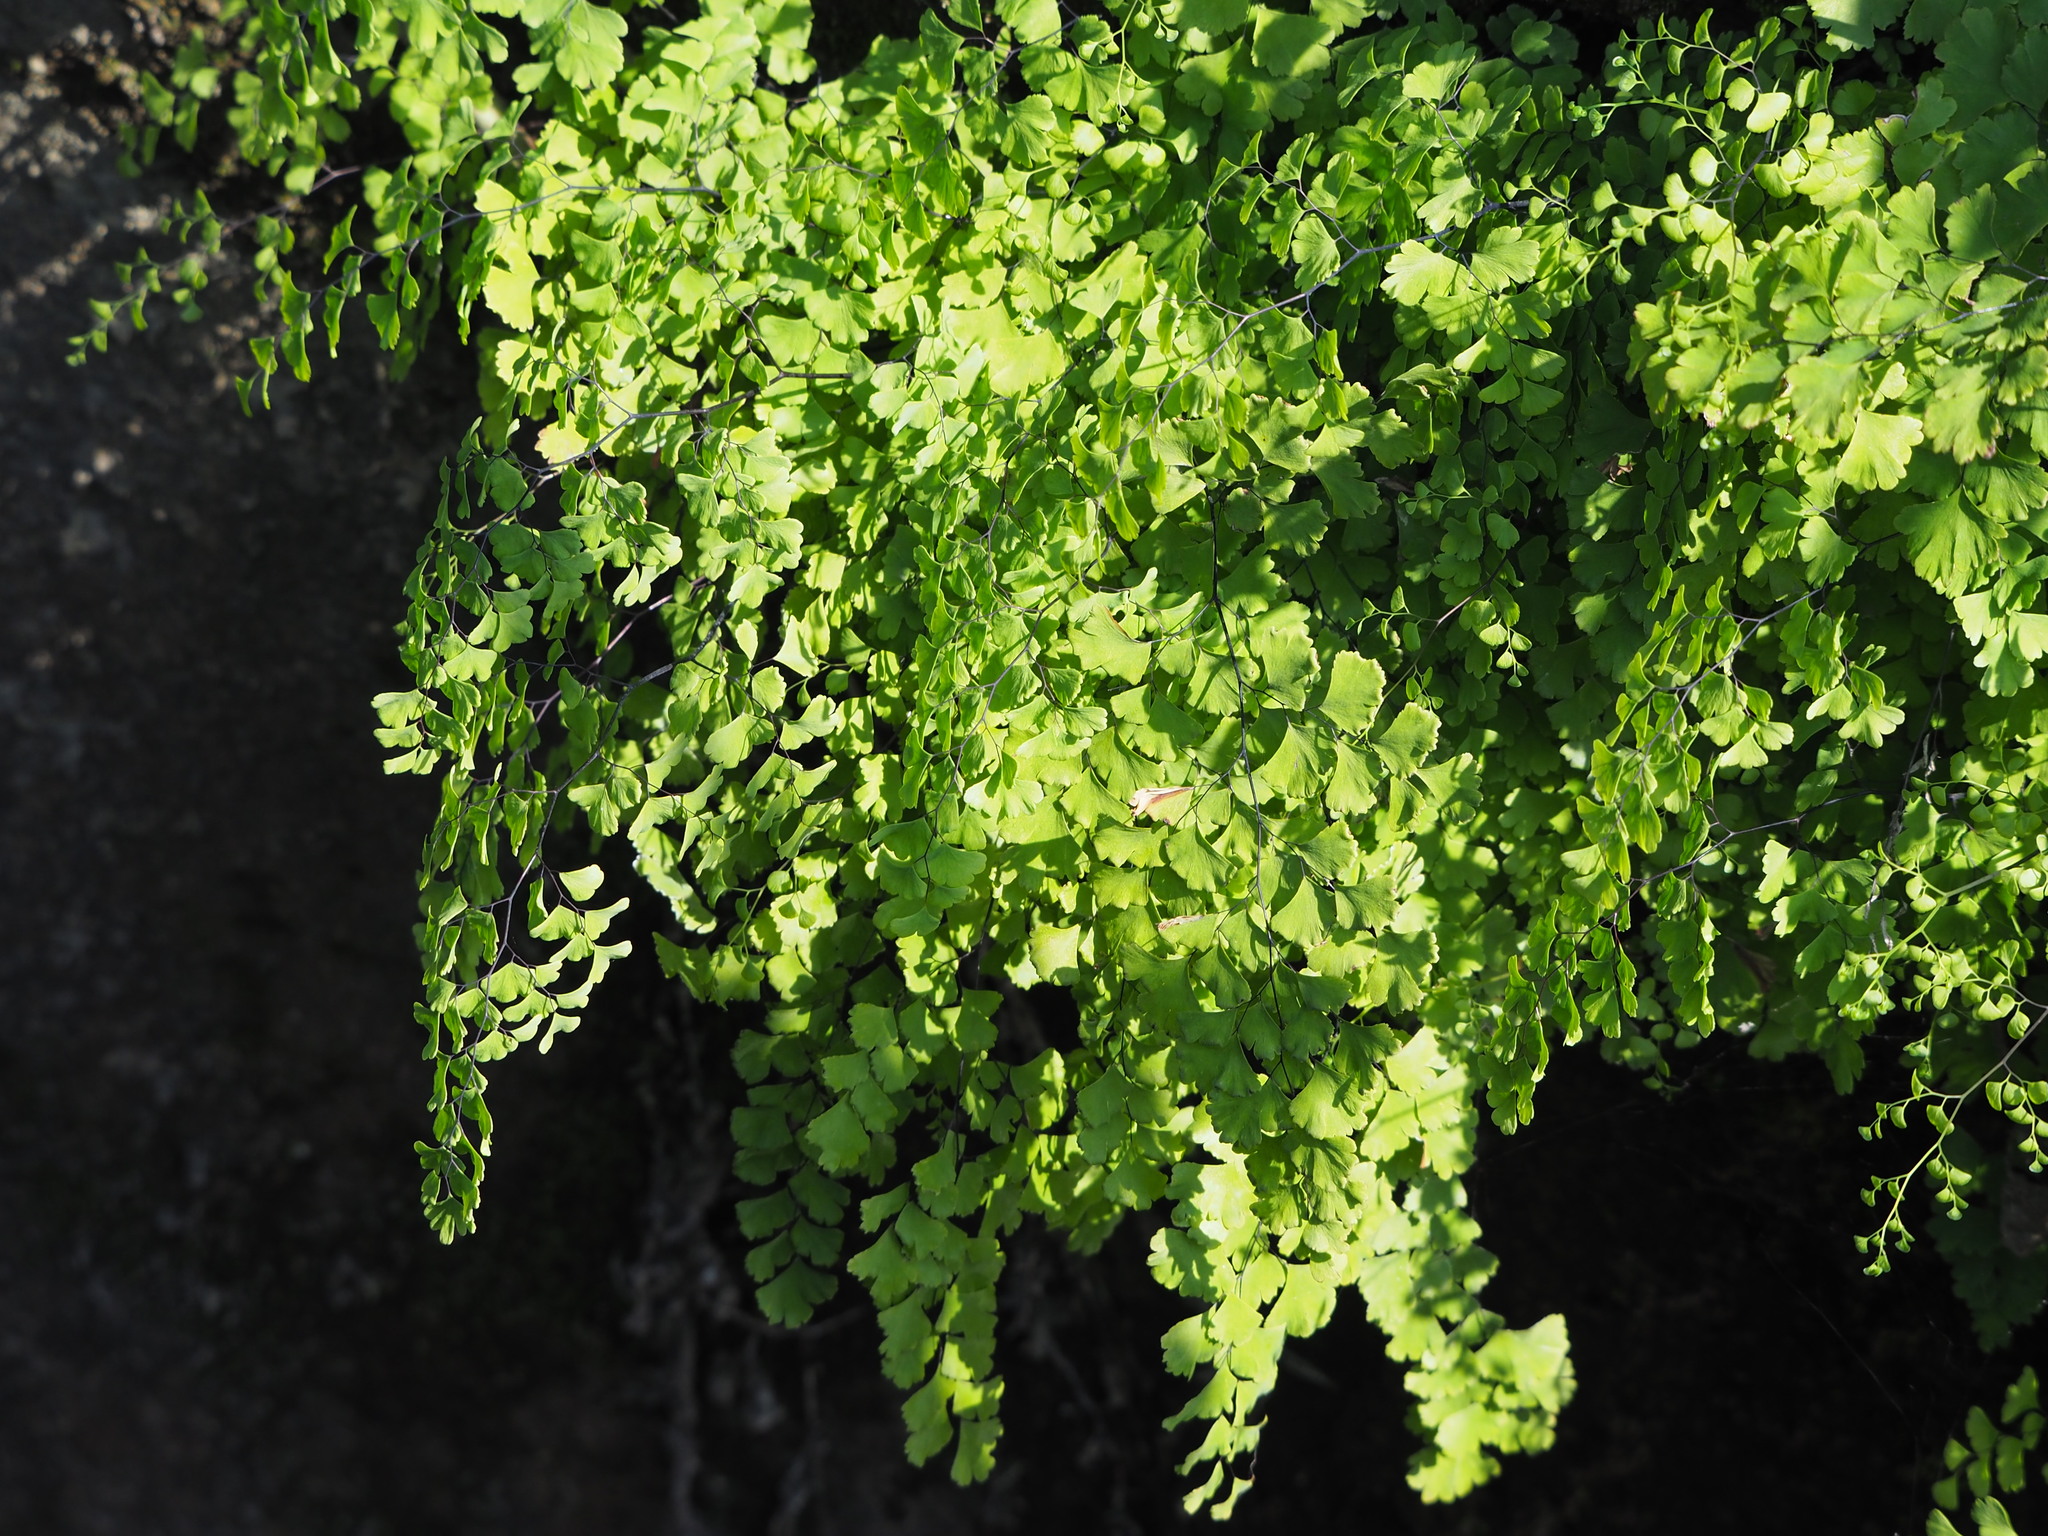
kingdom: Plantae
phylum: Tracheophyta
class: Polypodiopsida
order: Polypodiales
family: Pteridaceae
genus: Adiantum
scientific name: Adiantum capillus-veneris
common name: Maidenhair fern
